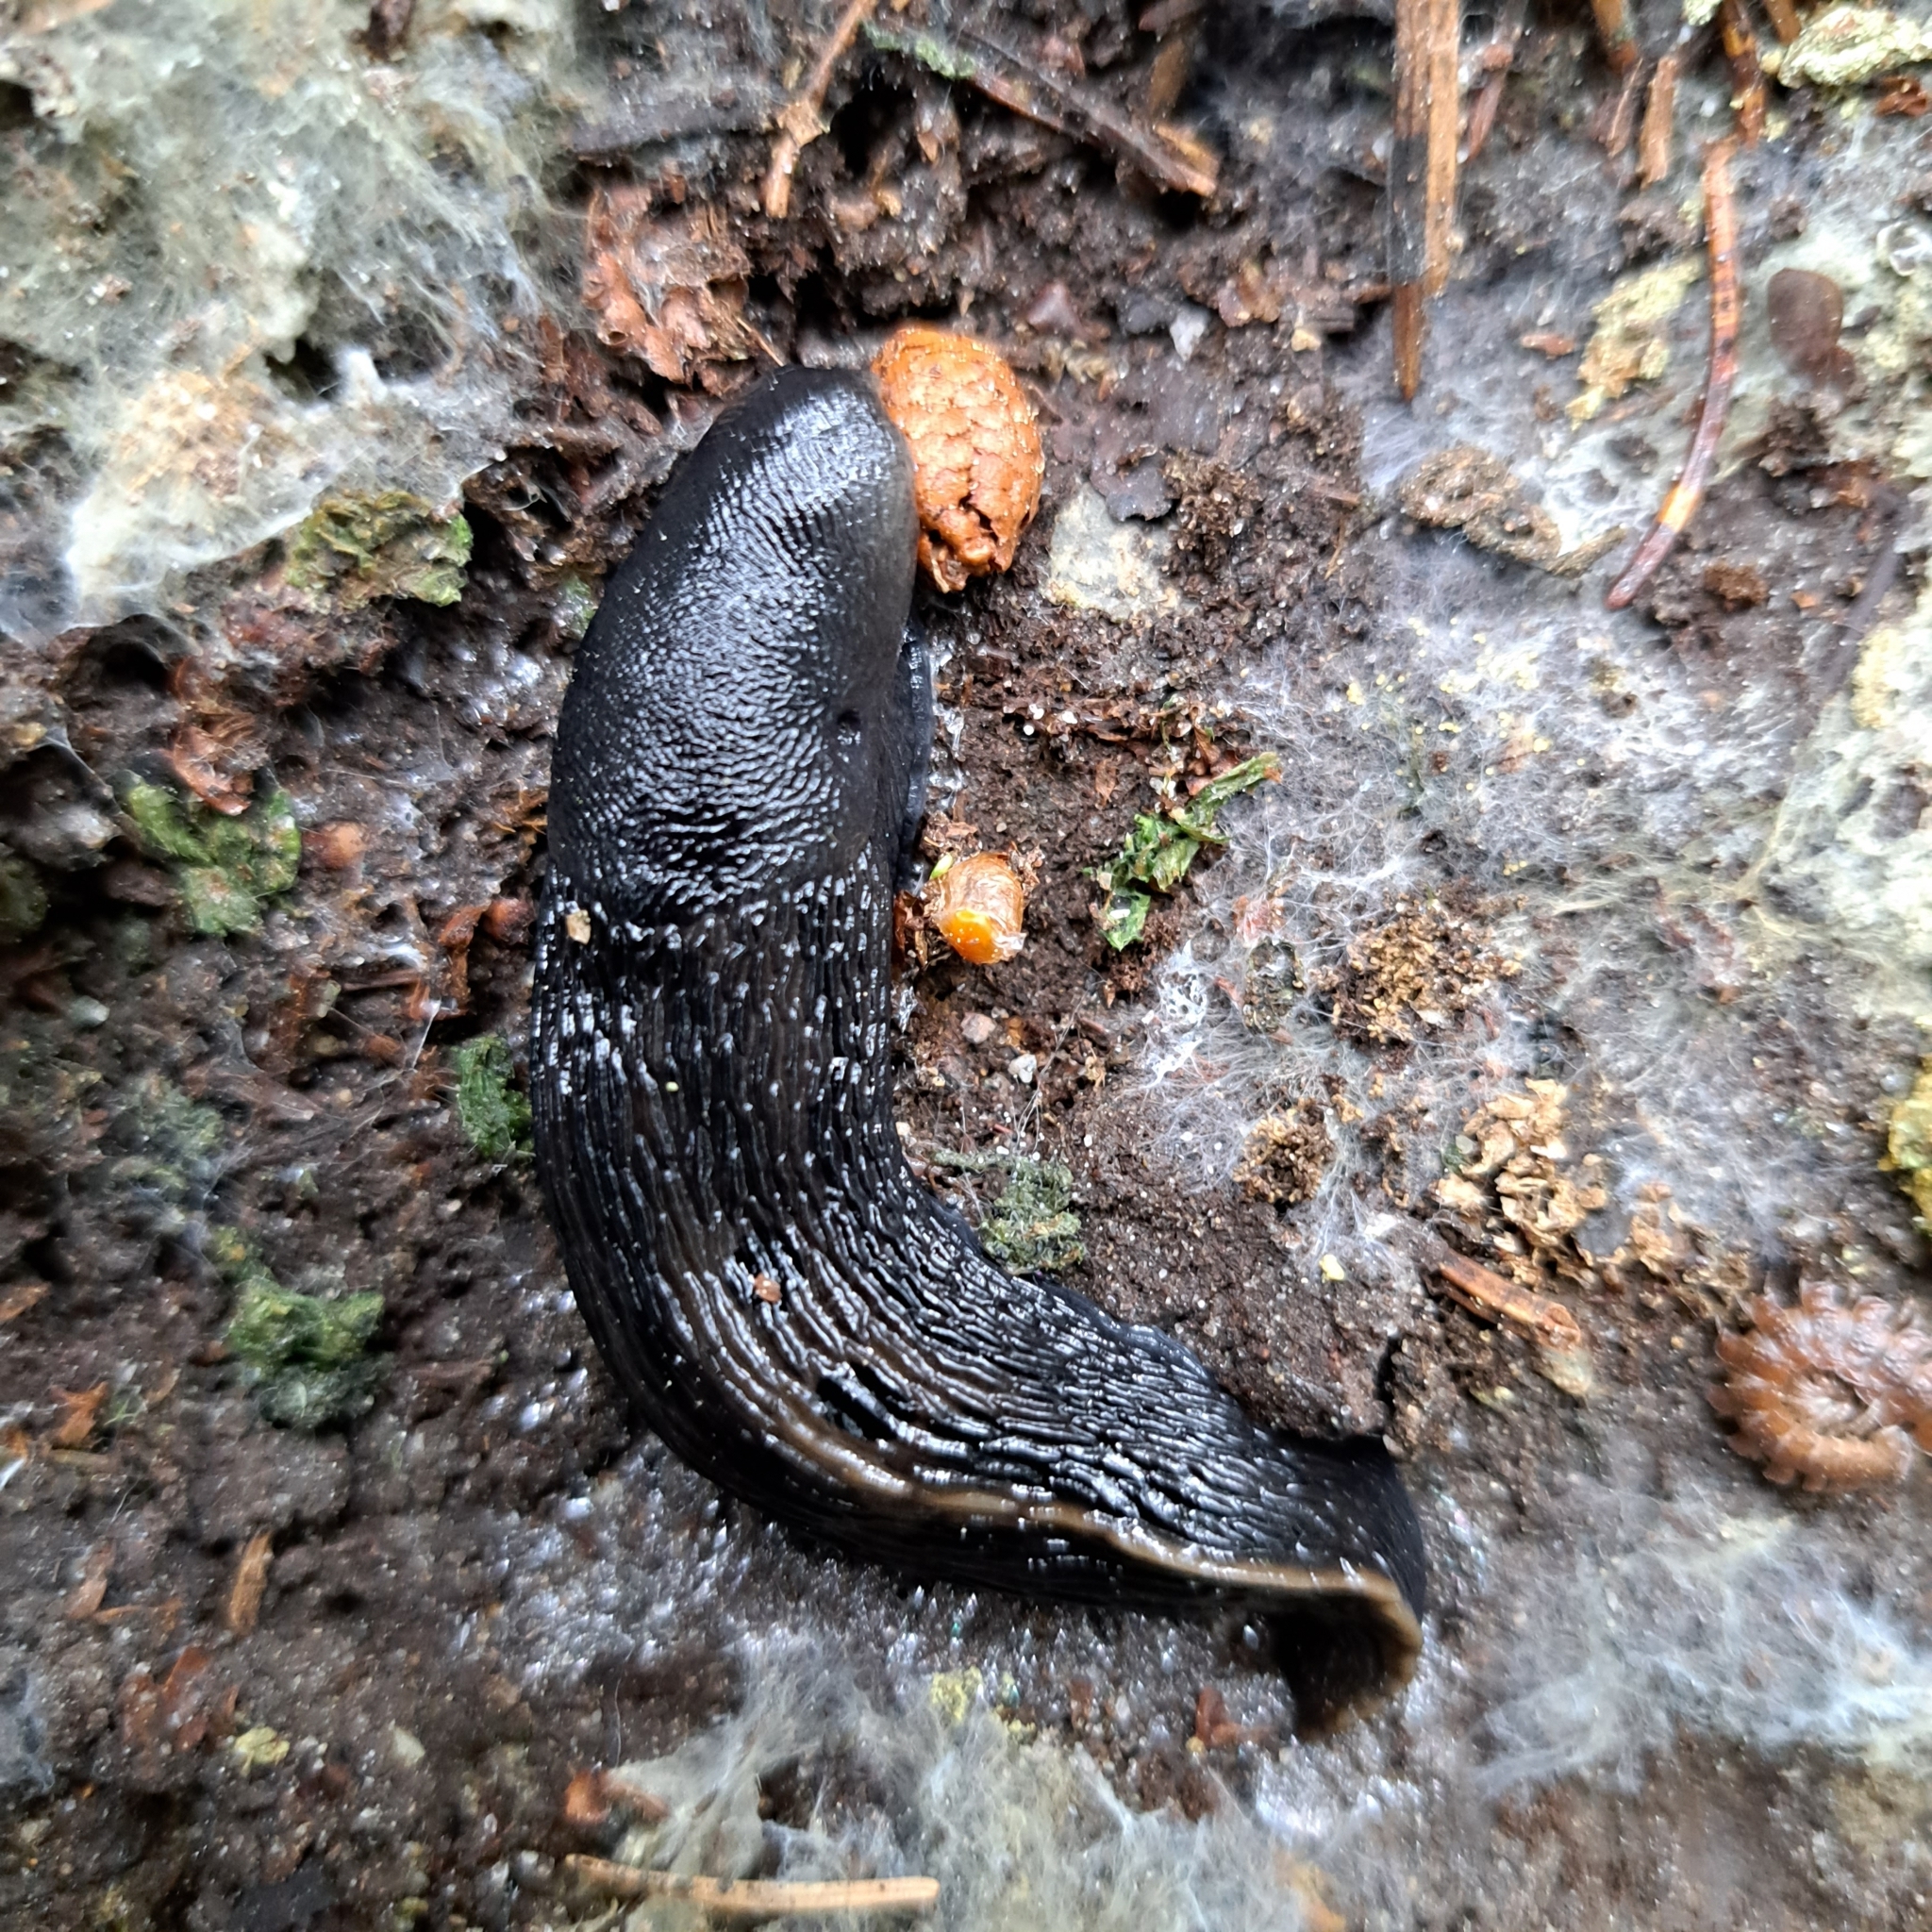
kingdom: Animalia
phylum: Mollusca
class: Gastropoda
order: Stylommatophora
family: Limacidae
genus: Limax
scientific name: Limax cinereoniger
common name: Ash-black slug
